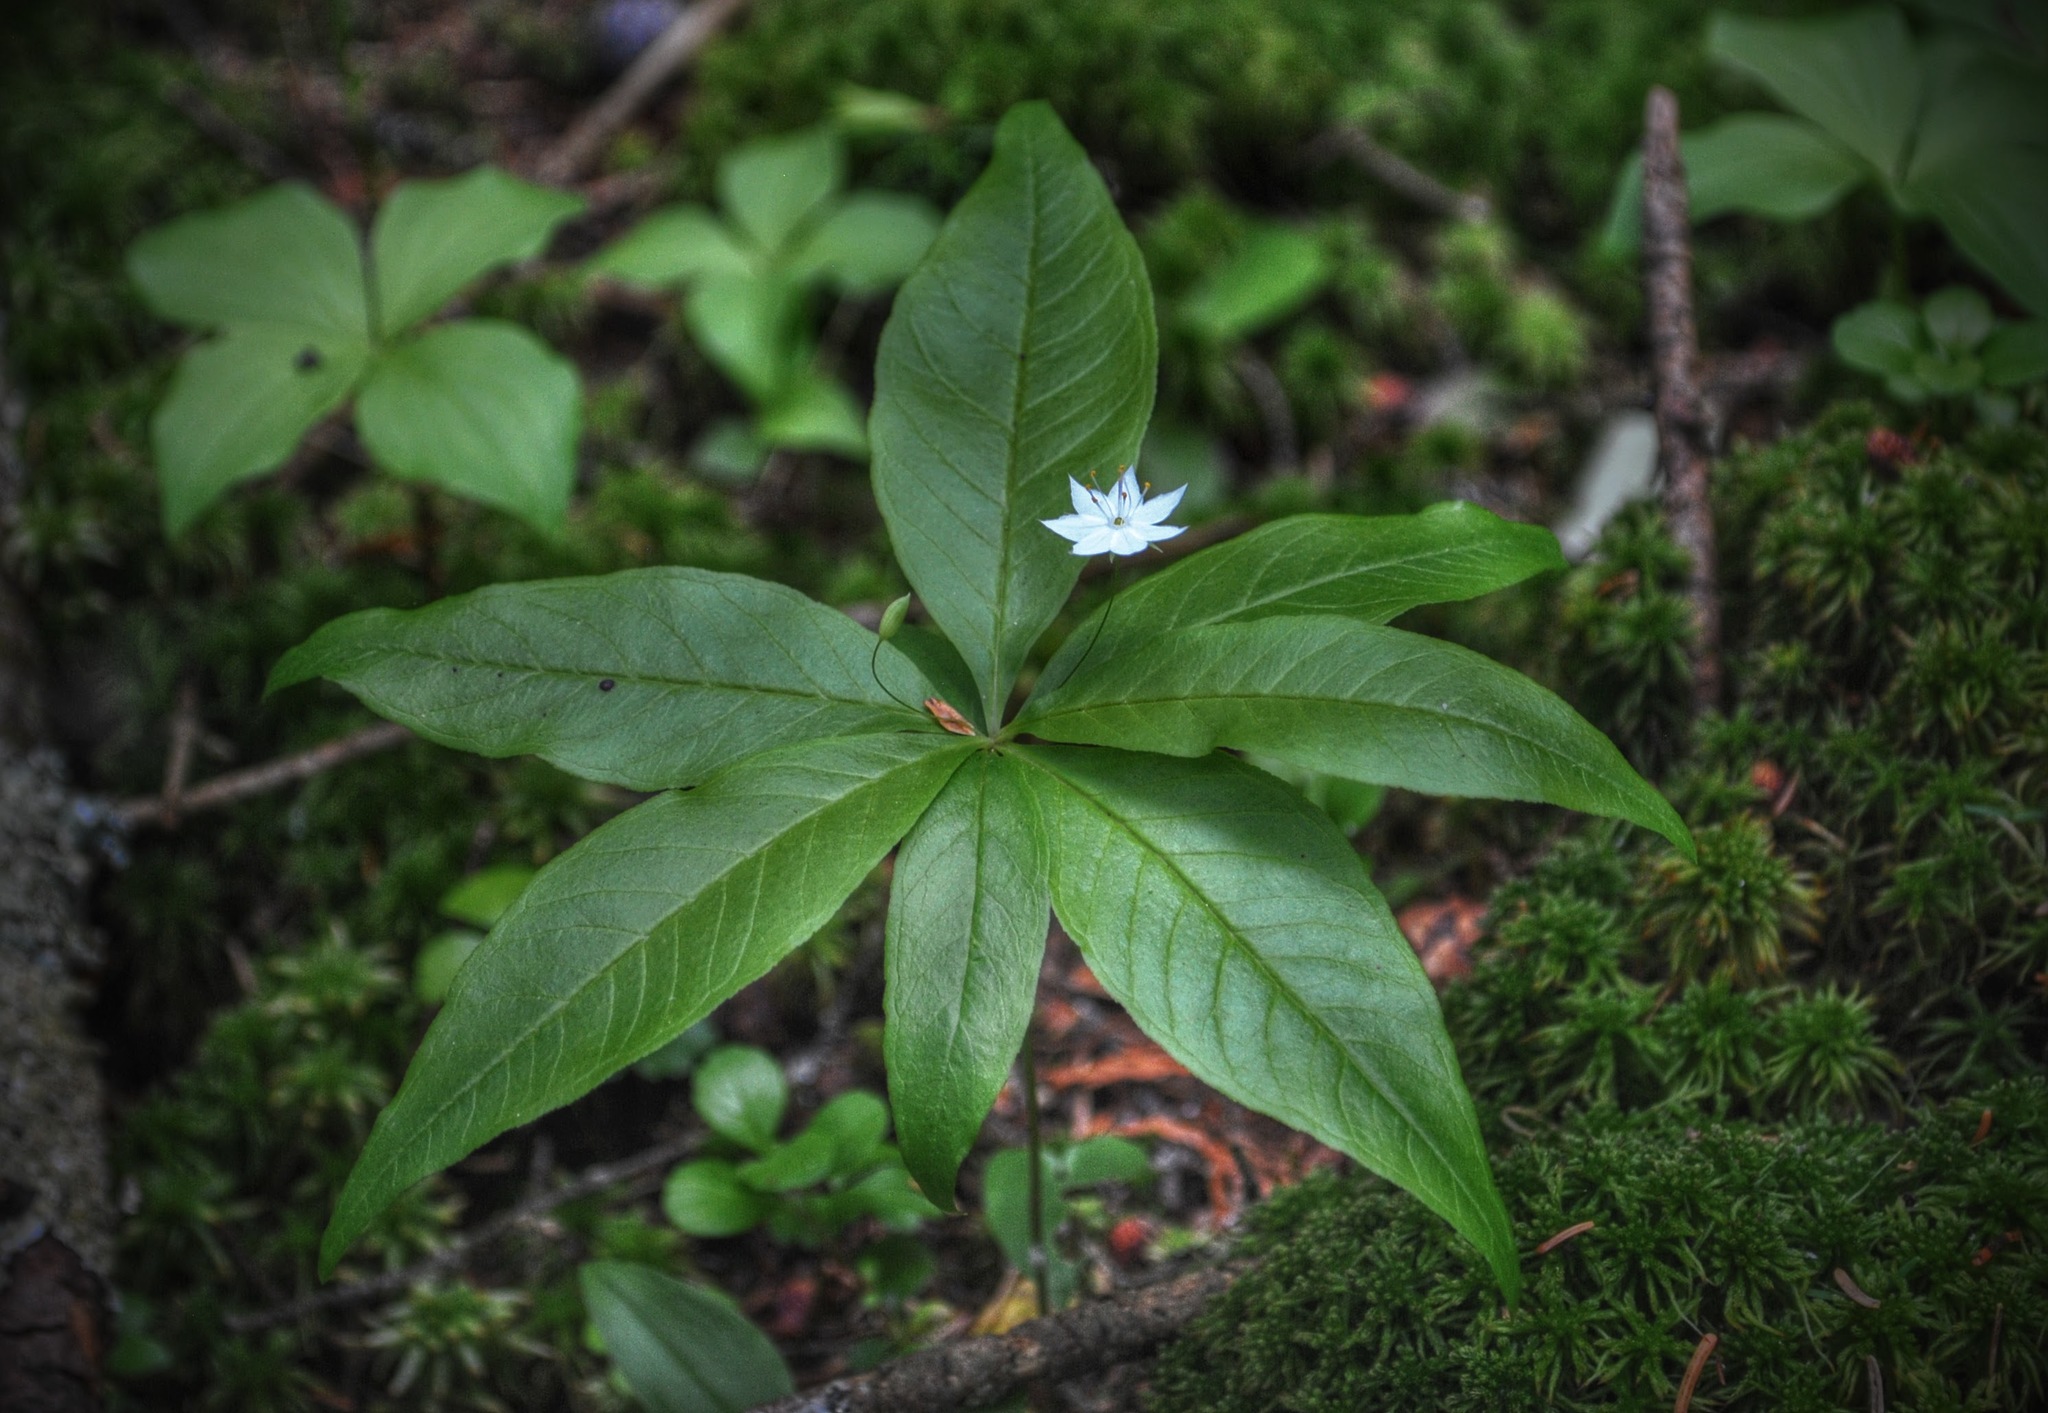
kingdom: Plantae
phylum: Tracheophyta
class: Magnoliopsida
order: Ericales
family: Primulaceae
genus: Lysimachia
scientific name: Lysimachia borealis
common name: American starflower
